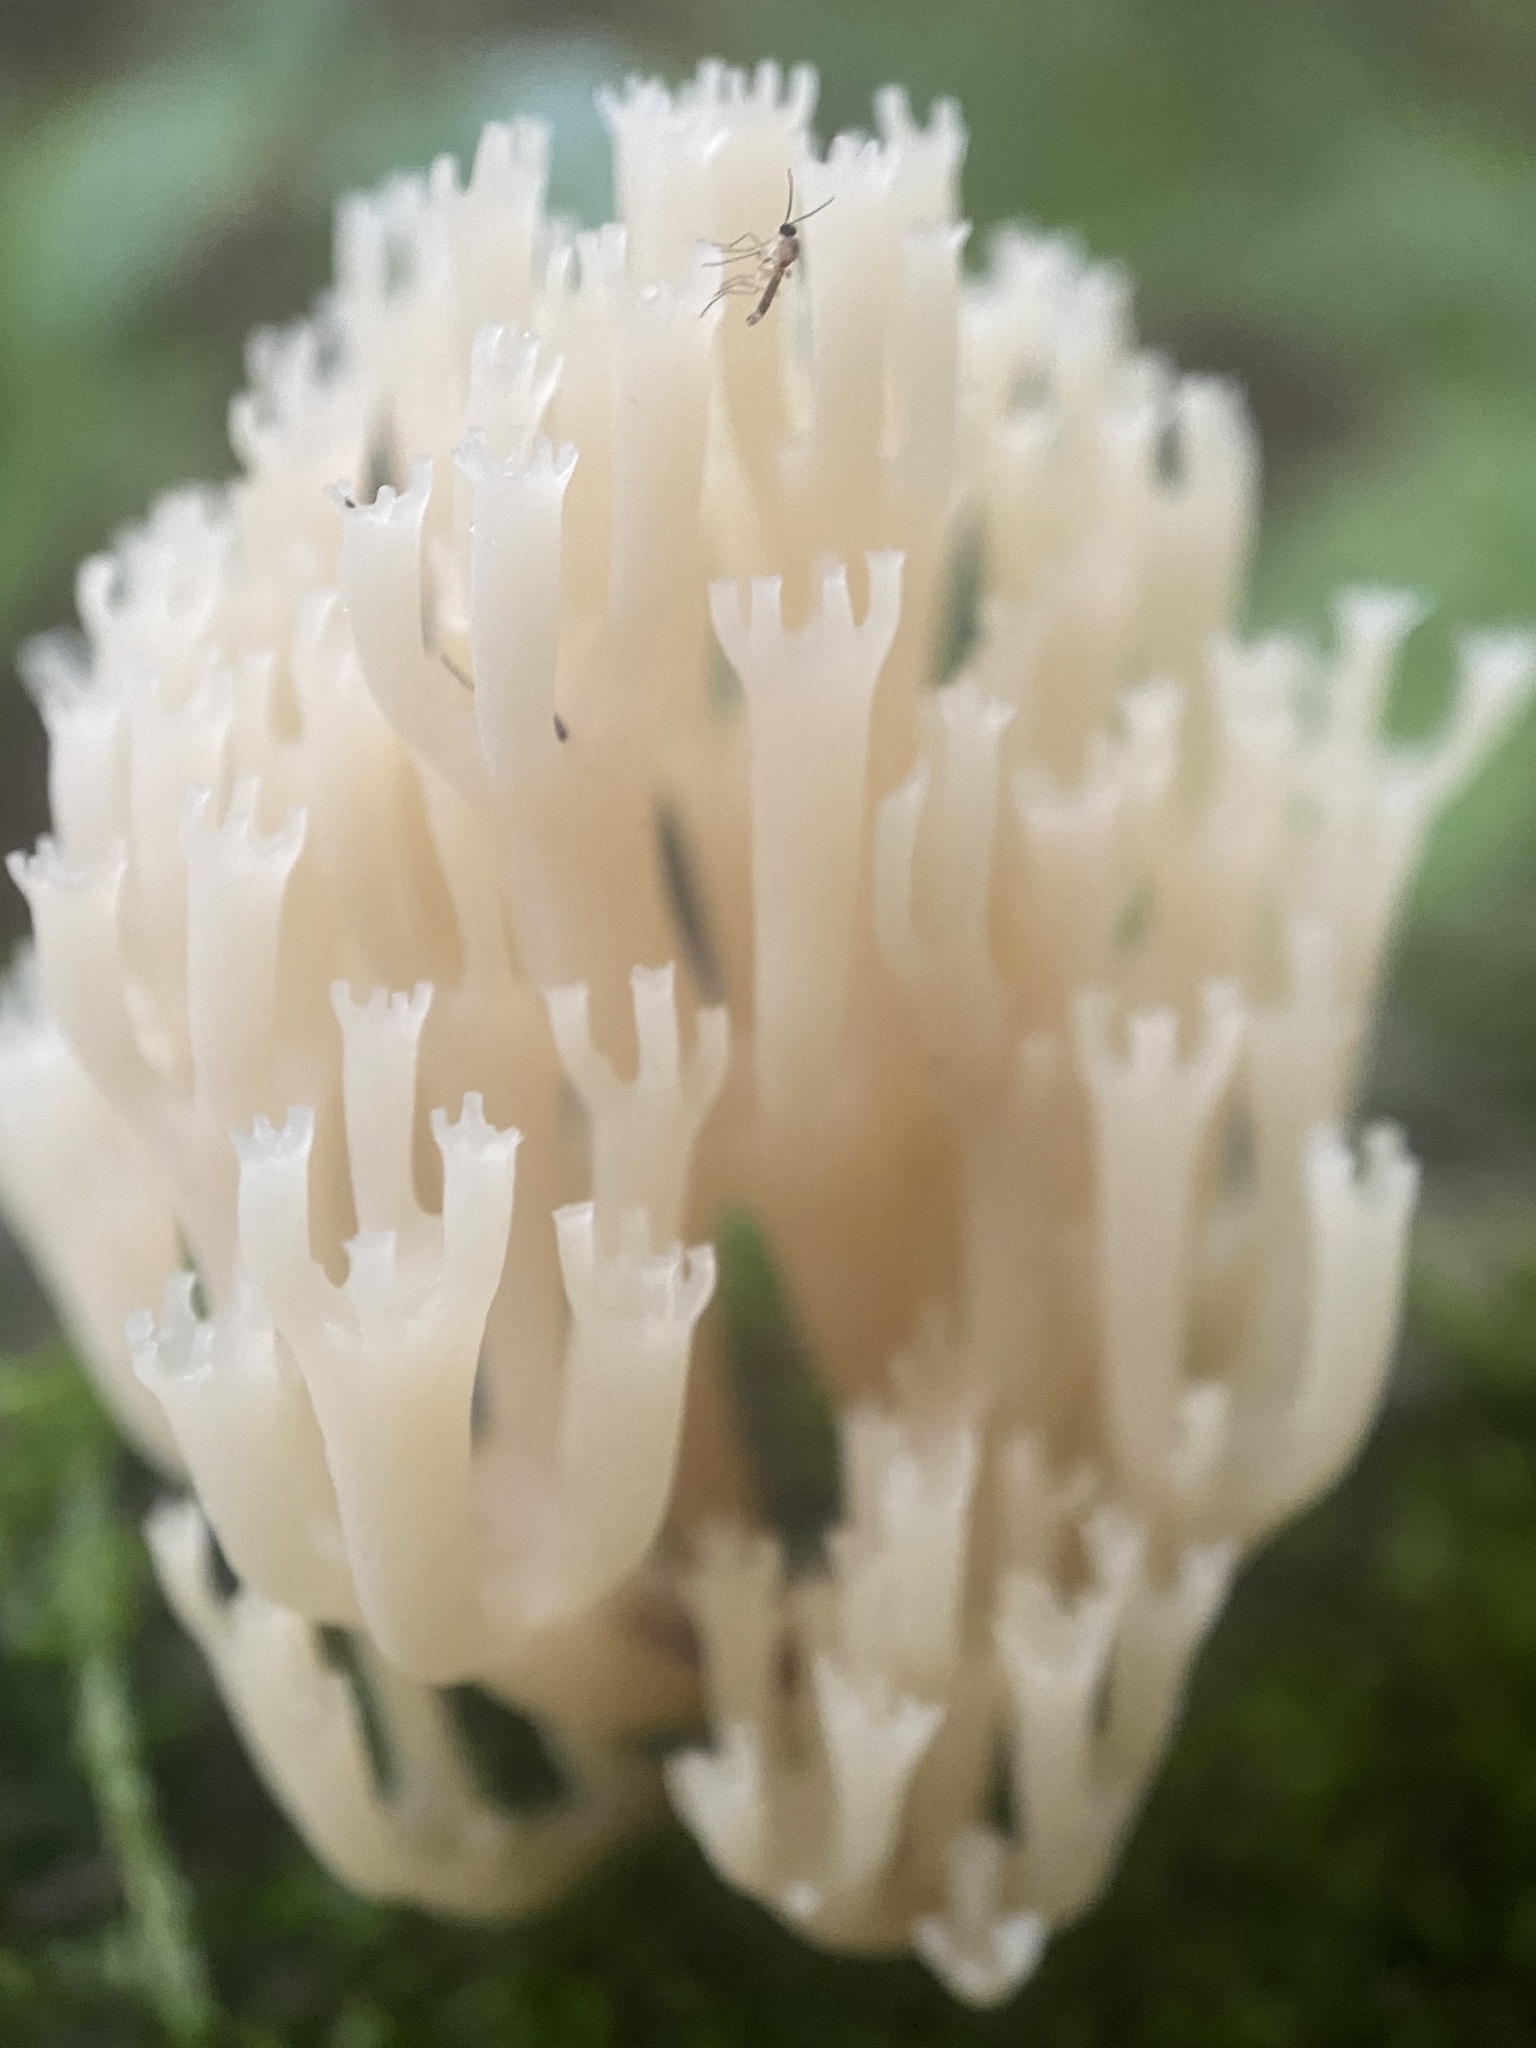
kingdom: Fungi
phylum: Basidiomycota
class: Agaricomycetes
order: Russulales
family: Auriscalpiaceae
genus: Artomyces
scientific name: Artomyces pyxidatus
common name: Crown-tipped coral fungus
